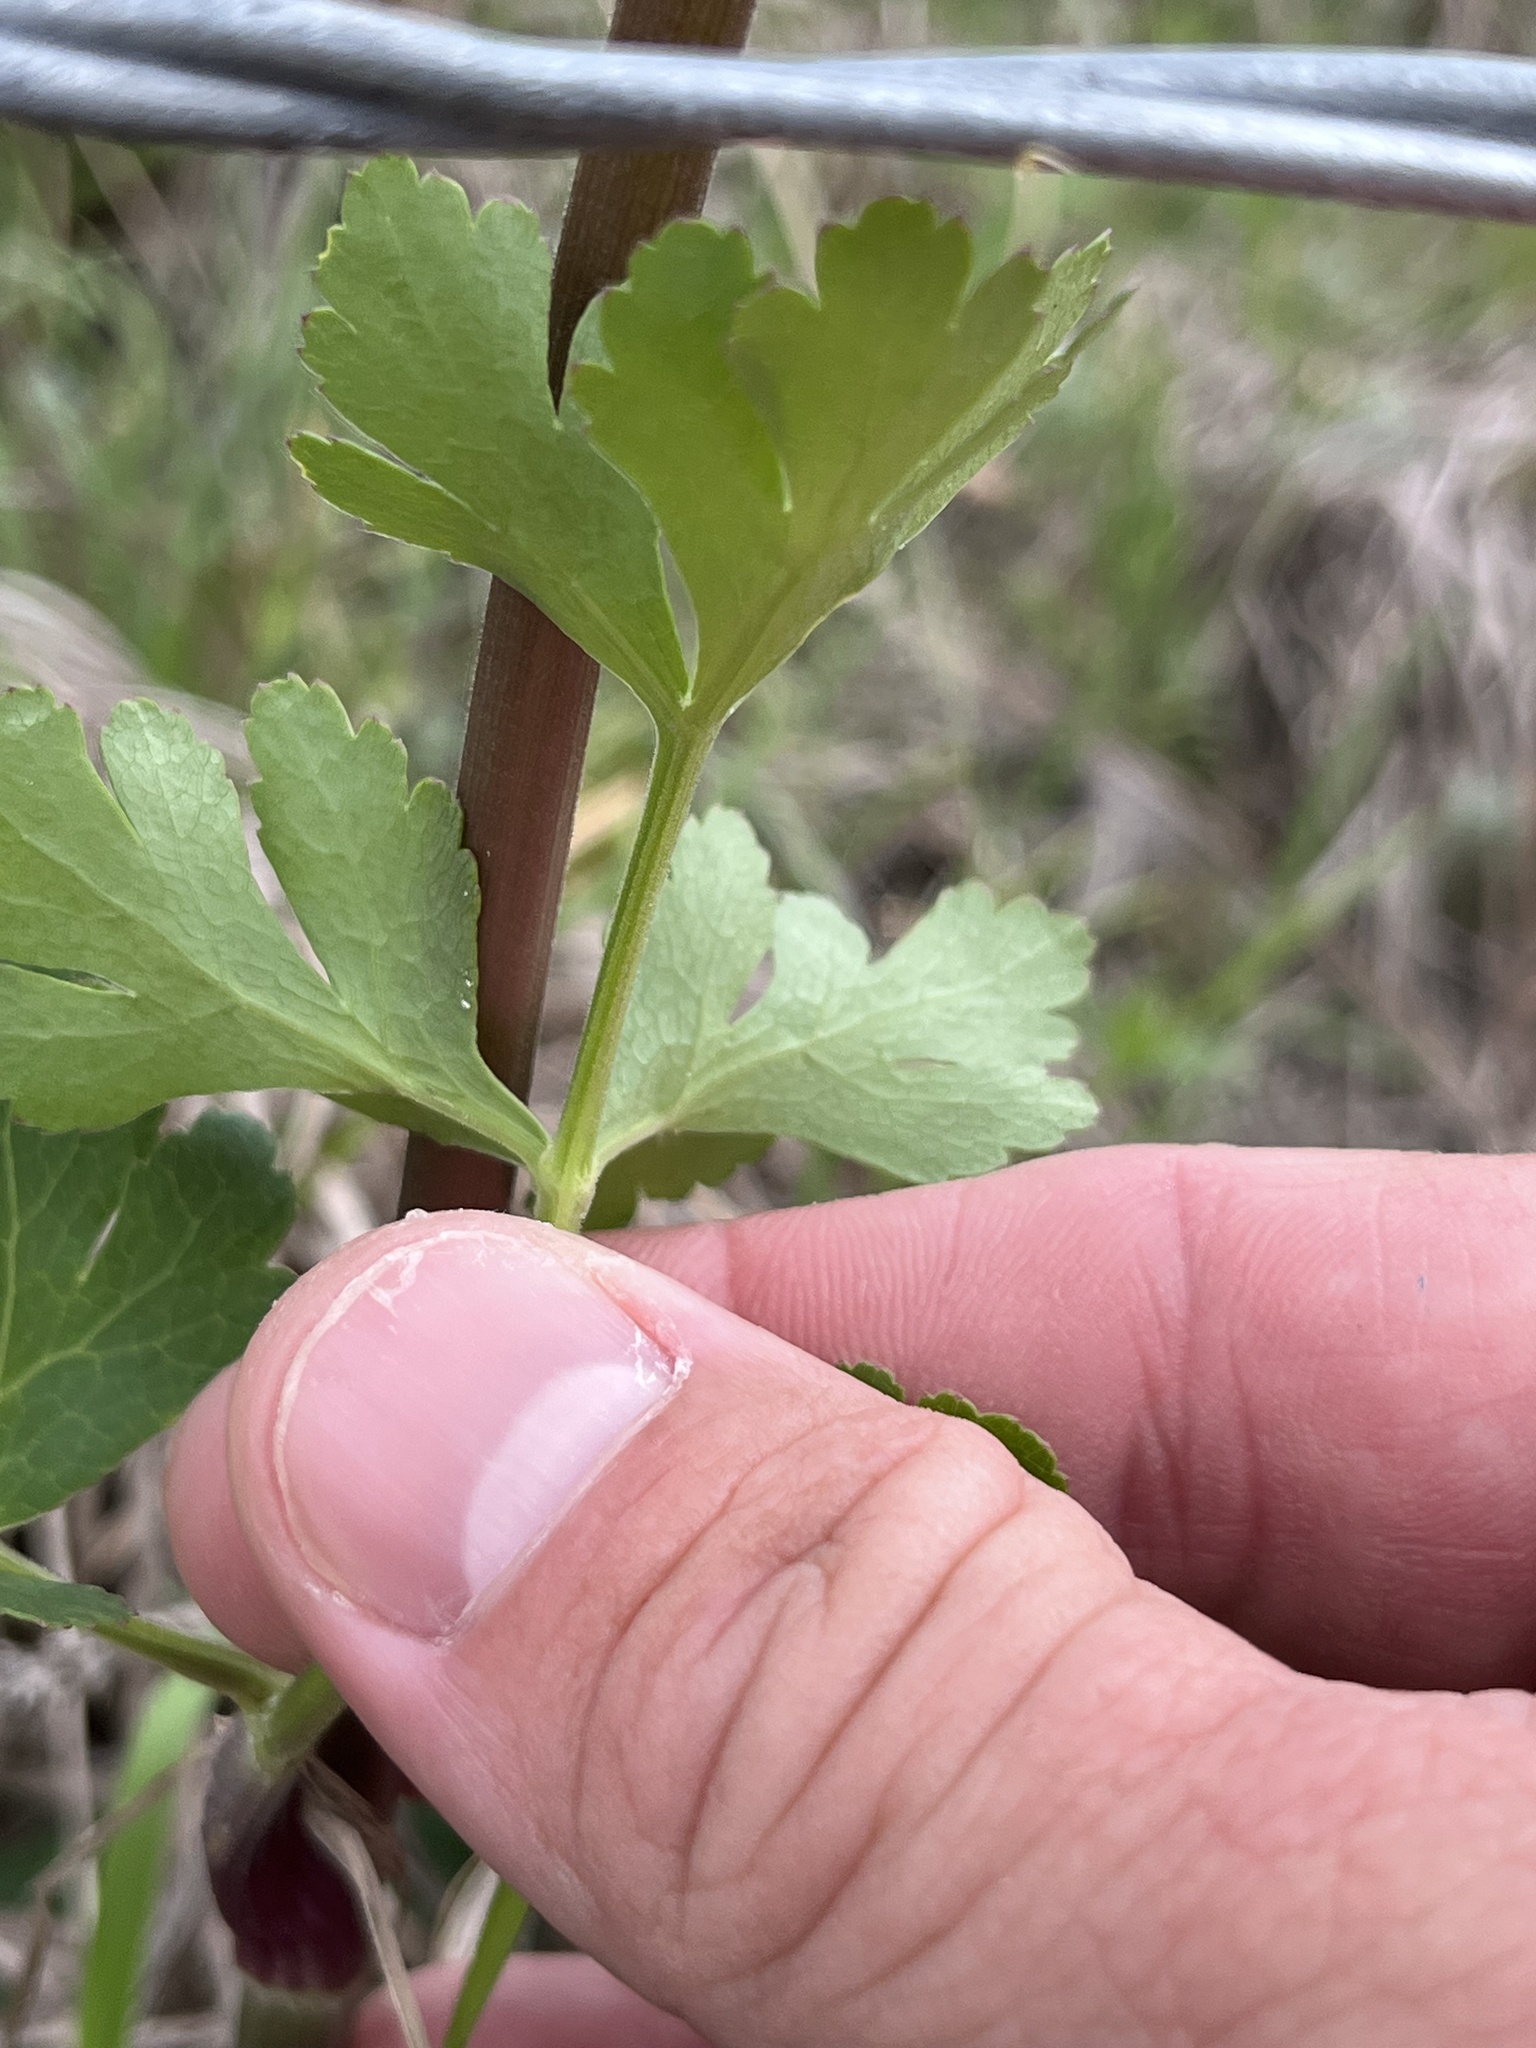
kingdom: Plantae
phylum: Tracheophyta
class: Magnoliopsida
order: Apiales
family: Apiaceae
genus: Polytaenia
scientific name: Polytaenia texana
